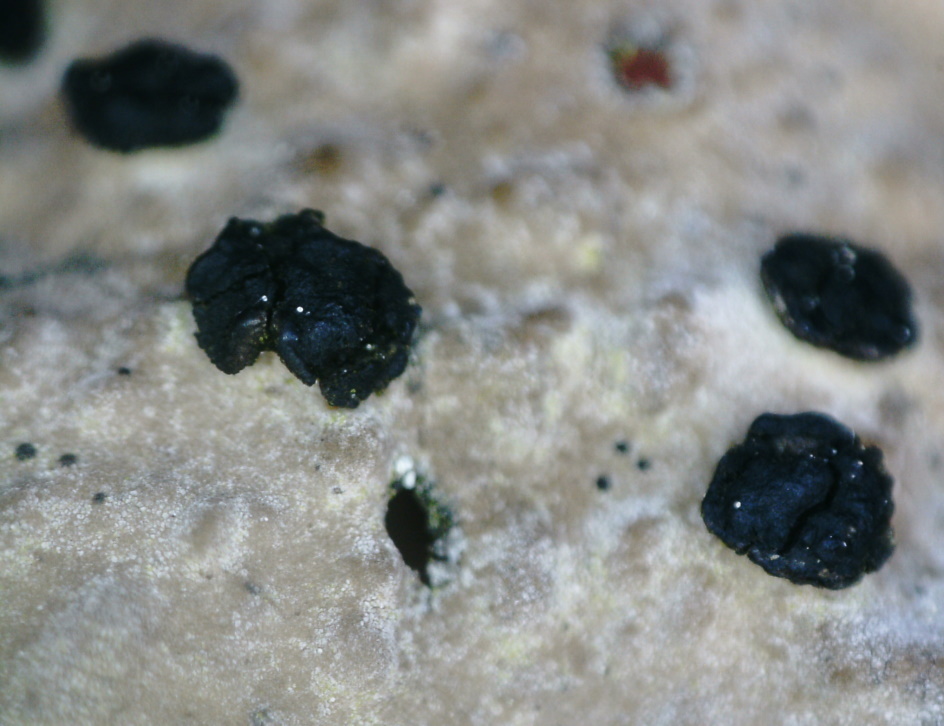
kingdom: Fungi
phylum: Ascomycota
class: Lecanoromycetes
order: Umbilicariales
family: Umbilicariaceae
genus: Lasallia
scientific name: Lasallia pustulata
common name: Blistered toadskin lichen
